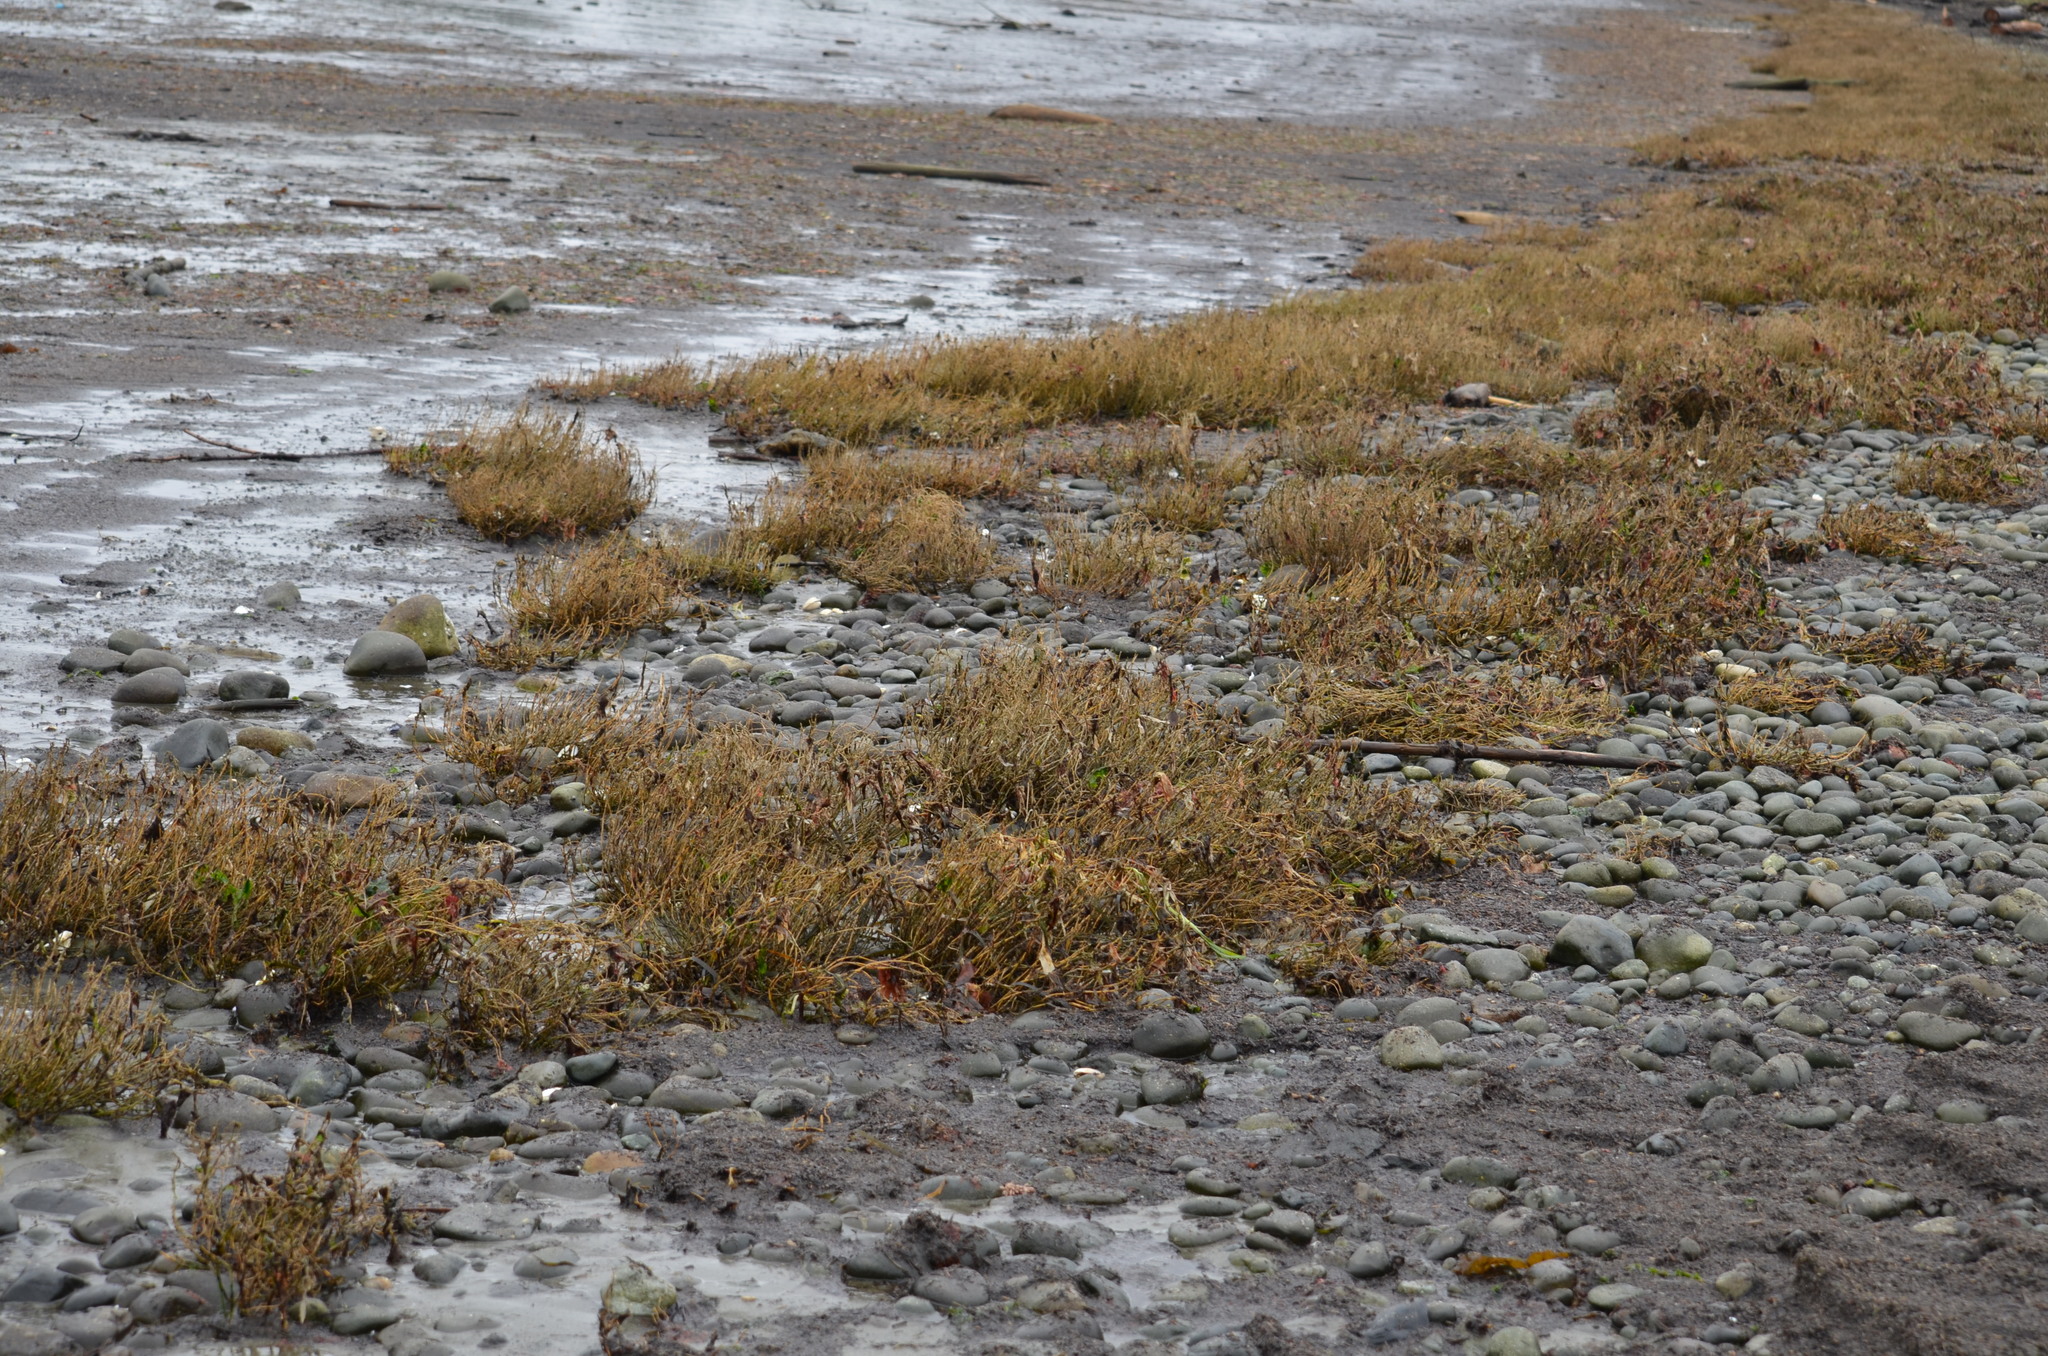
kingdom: Plantae
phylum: Tracheophyta
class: Magnoliopsida
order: Caryophyllales
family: Amaranthaceae
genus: Salicornia
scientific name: Salicornia pacifica
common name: Pacific glasswort
